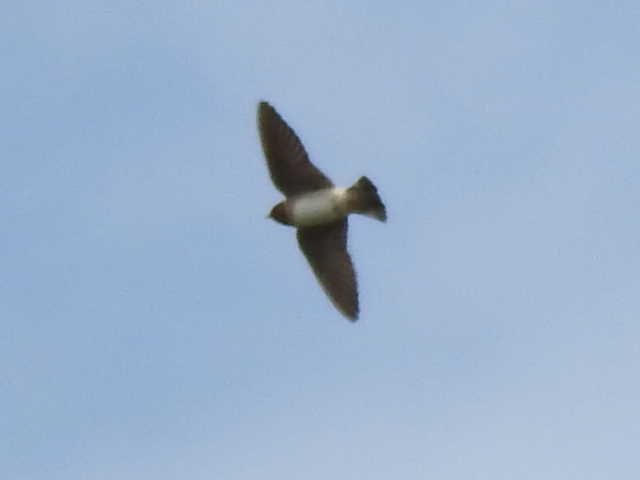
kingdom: Animalia
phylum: Chordata
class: Aves
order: Passeriformes
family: Hirundinidae
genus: Petrochelidon
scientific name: Petrochelidon pyrrhonota
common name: American cliff swallow
